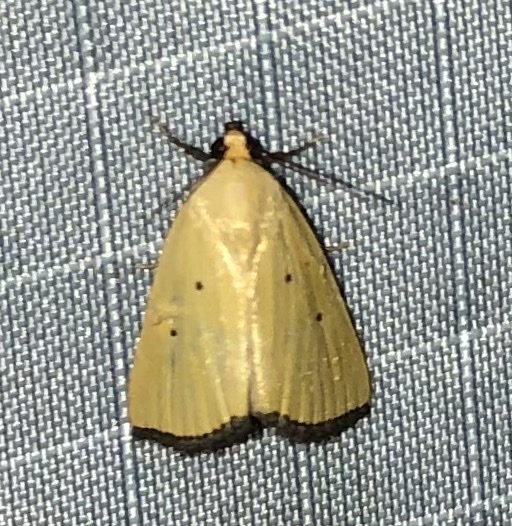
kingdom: Animalia
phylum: Arthropoda
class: Insecta
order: Lepidoptera
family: Noctuidae
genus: Marimatha
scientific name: Marimatha nigrofimbria
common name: Black-bordered lemon moth
